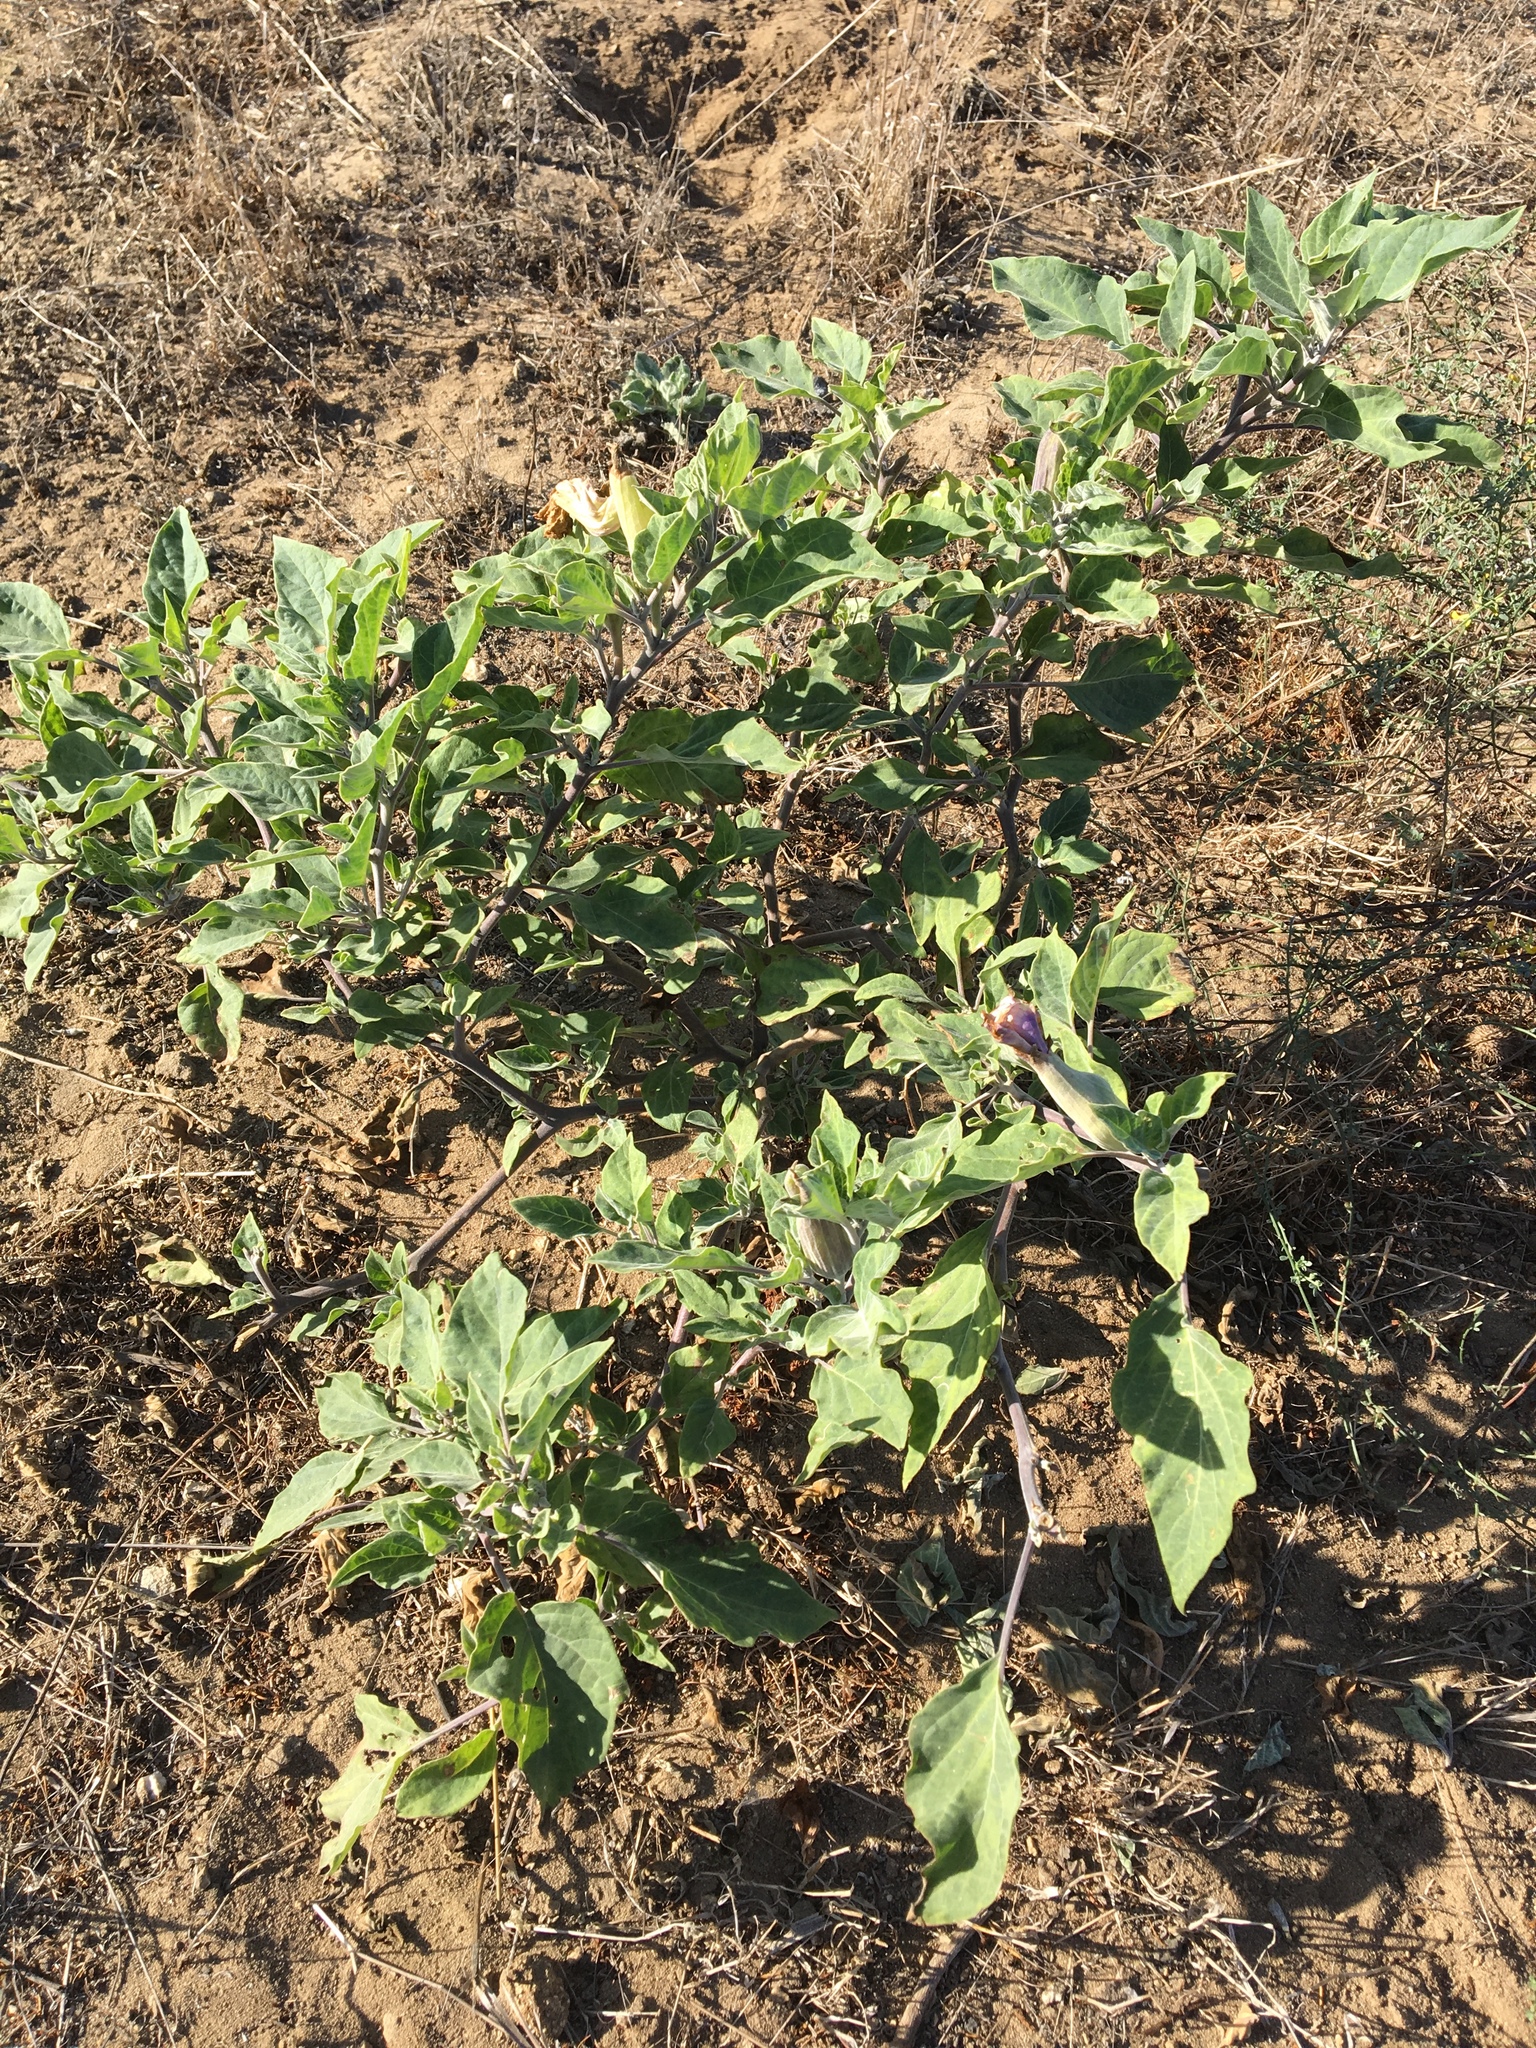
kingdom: Plantae
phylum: Tracheophyta
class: Magnoliopsida
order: Solanales
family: Solanaceae
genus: Datura
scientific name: Datura wrightii
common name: Sacred thorn-apple
